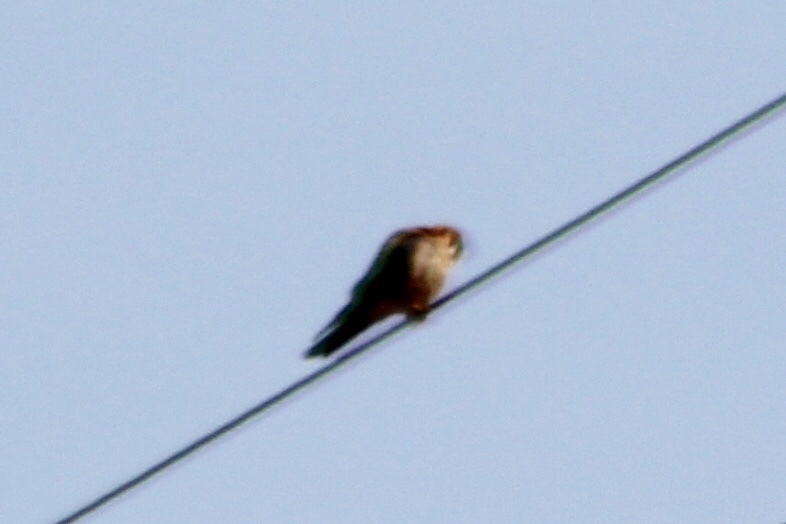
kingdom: Animalia
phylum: Chordata
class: Aves
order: Falconiformes
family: Falconidae
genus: Falco
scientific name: Falco sparverius
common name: American kestrel
